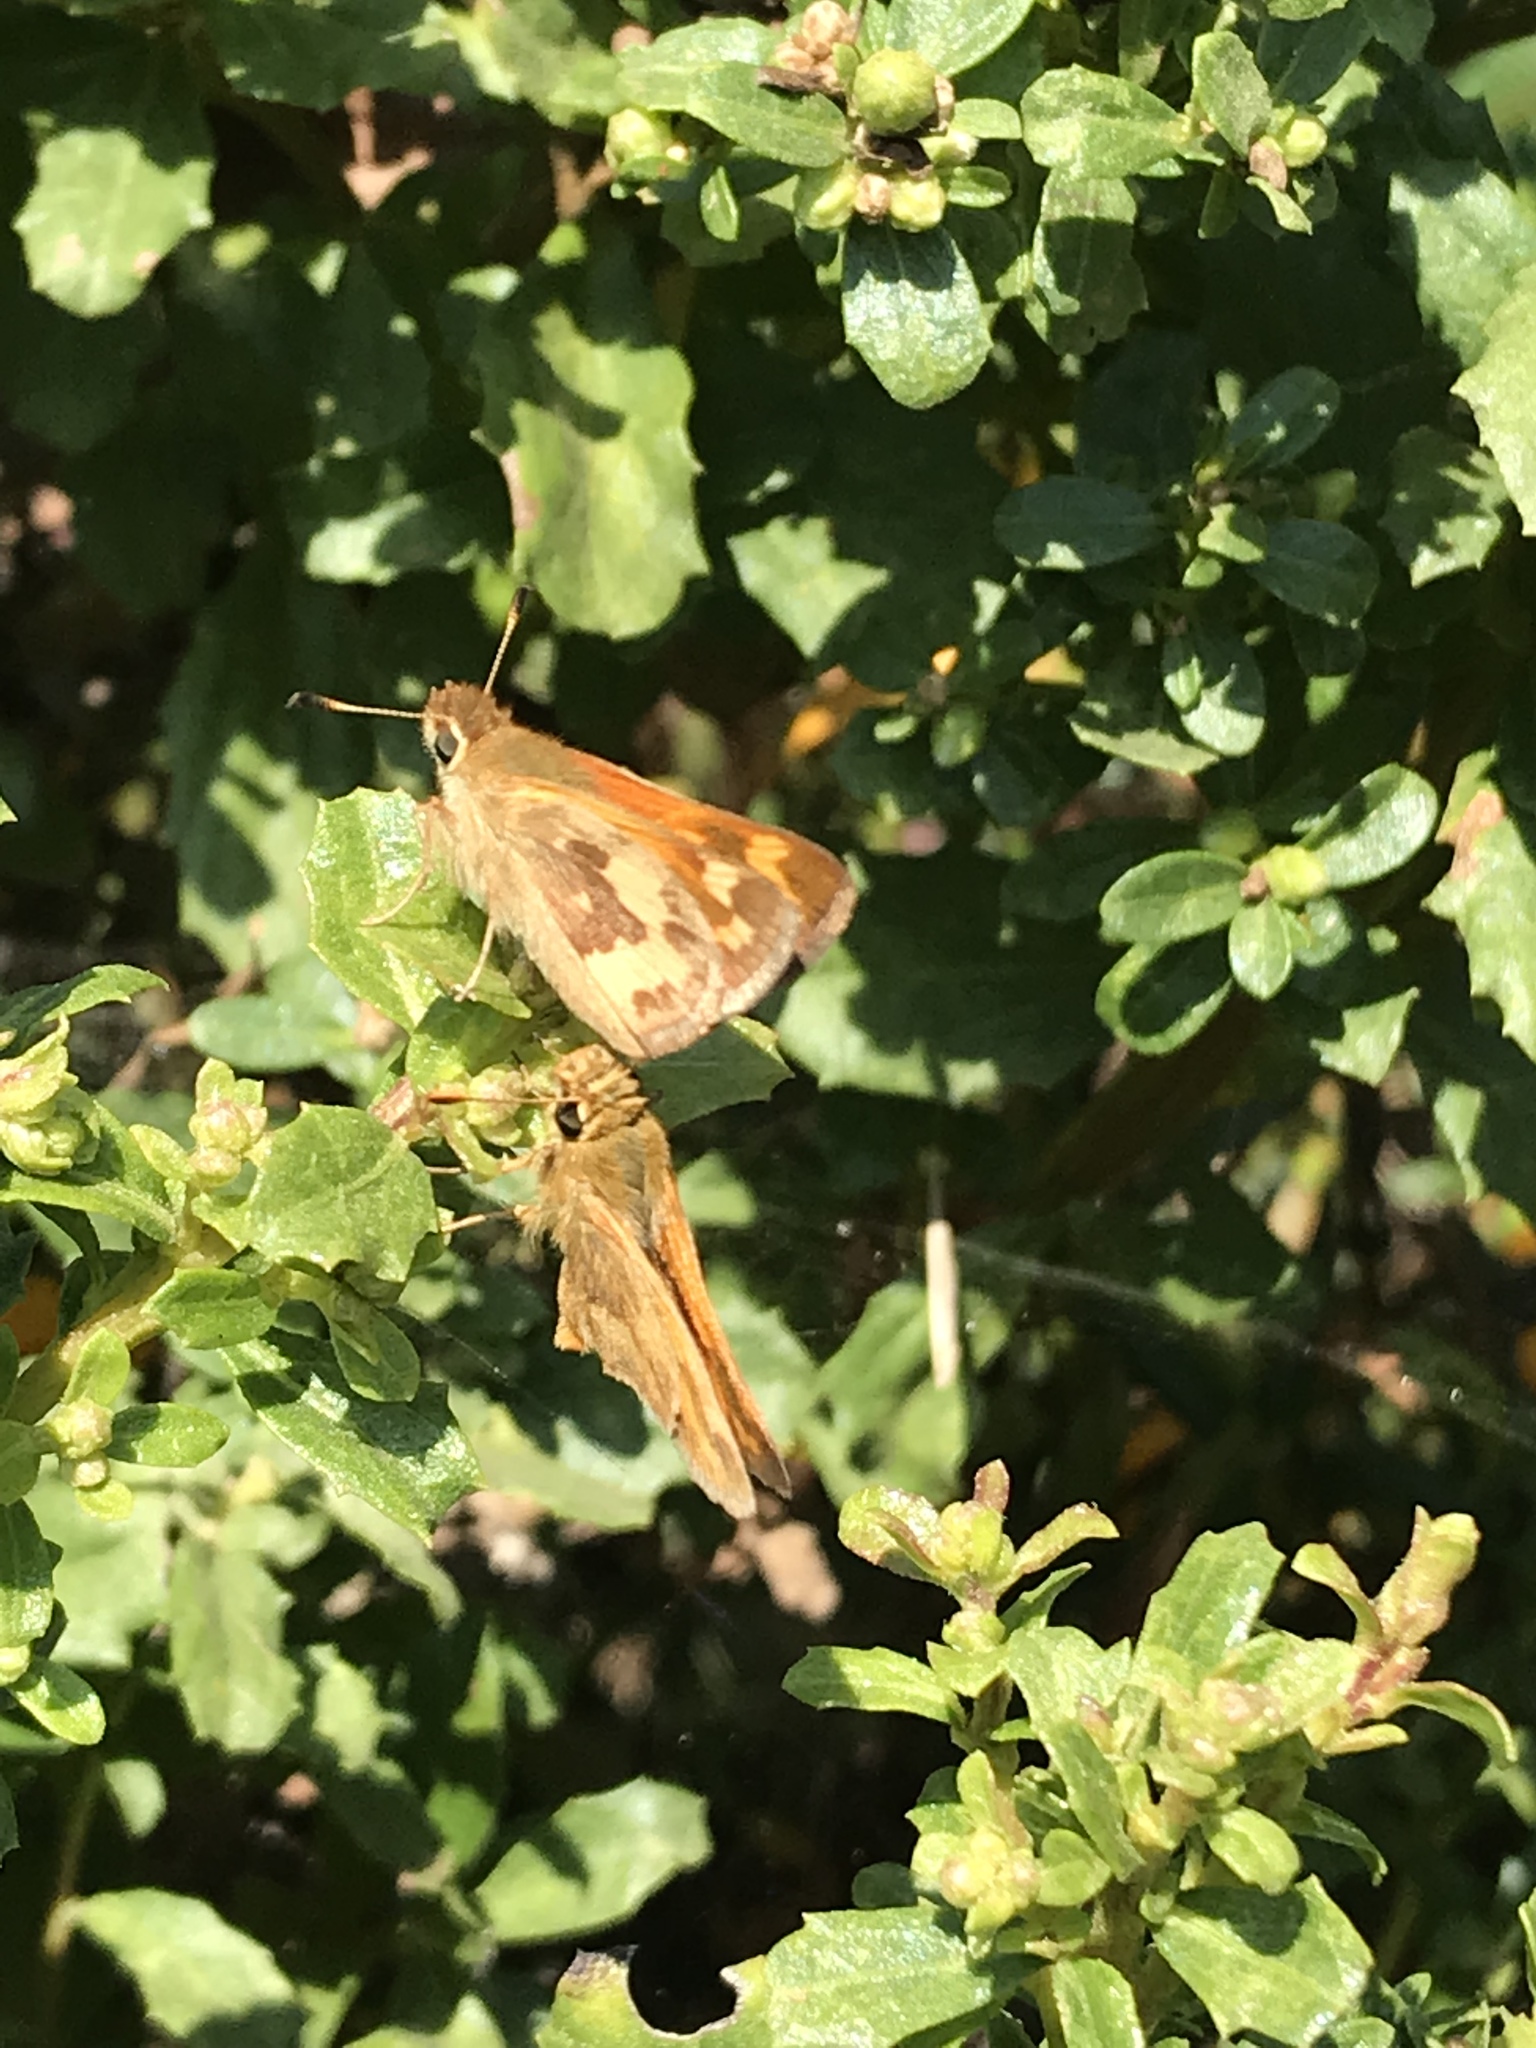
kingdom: Animalia
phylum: Arthropoda
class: Insecta
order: Lepidoptera
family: Hesperiidae
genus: Ochlodes
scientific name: Ochlodes sylvanoides
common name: Woodland skipper
